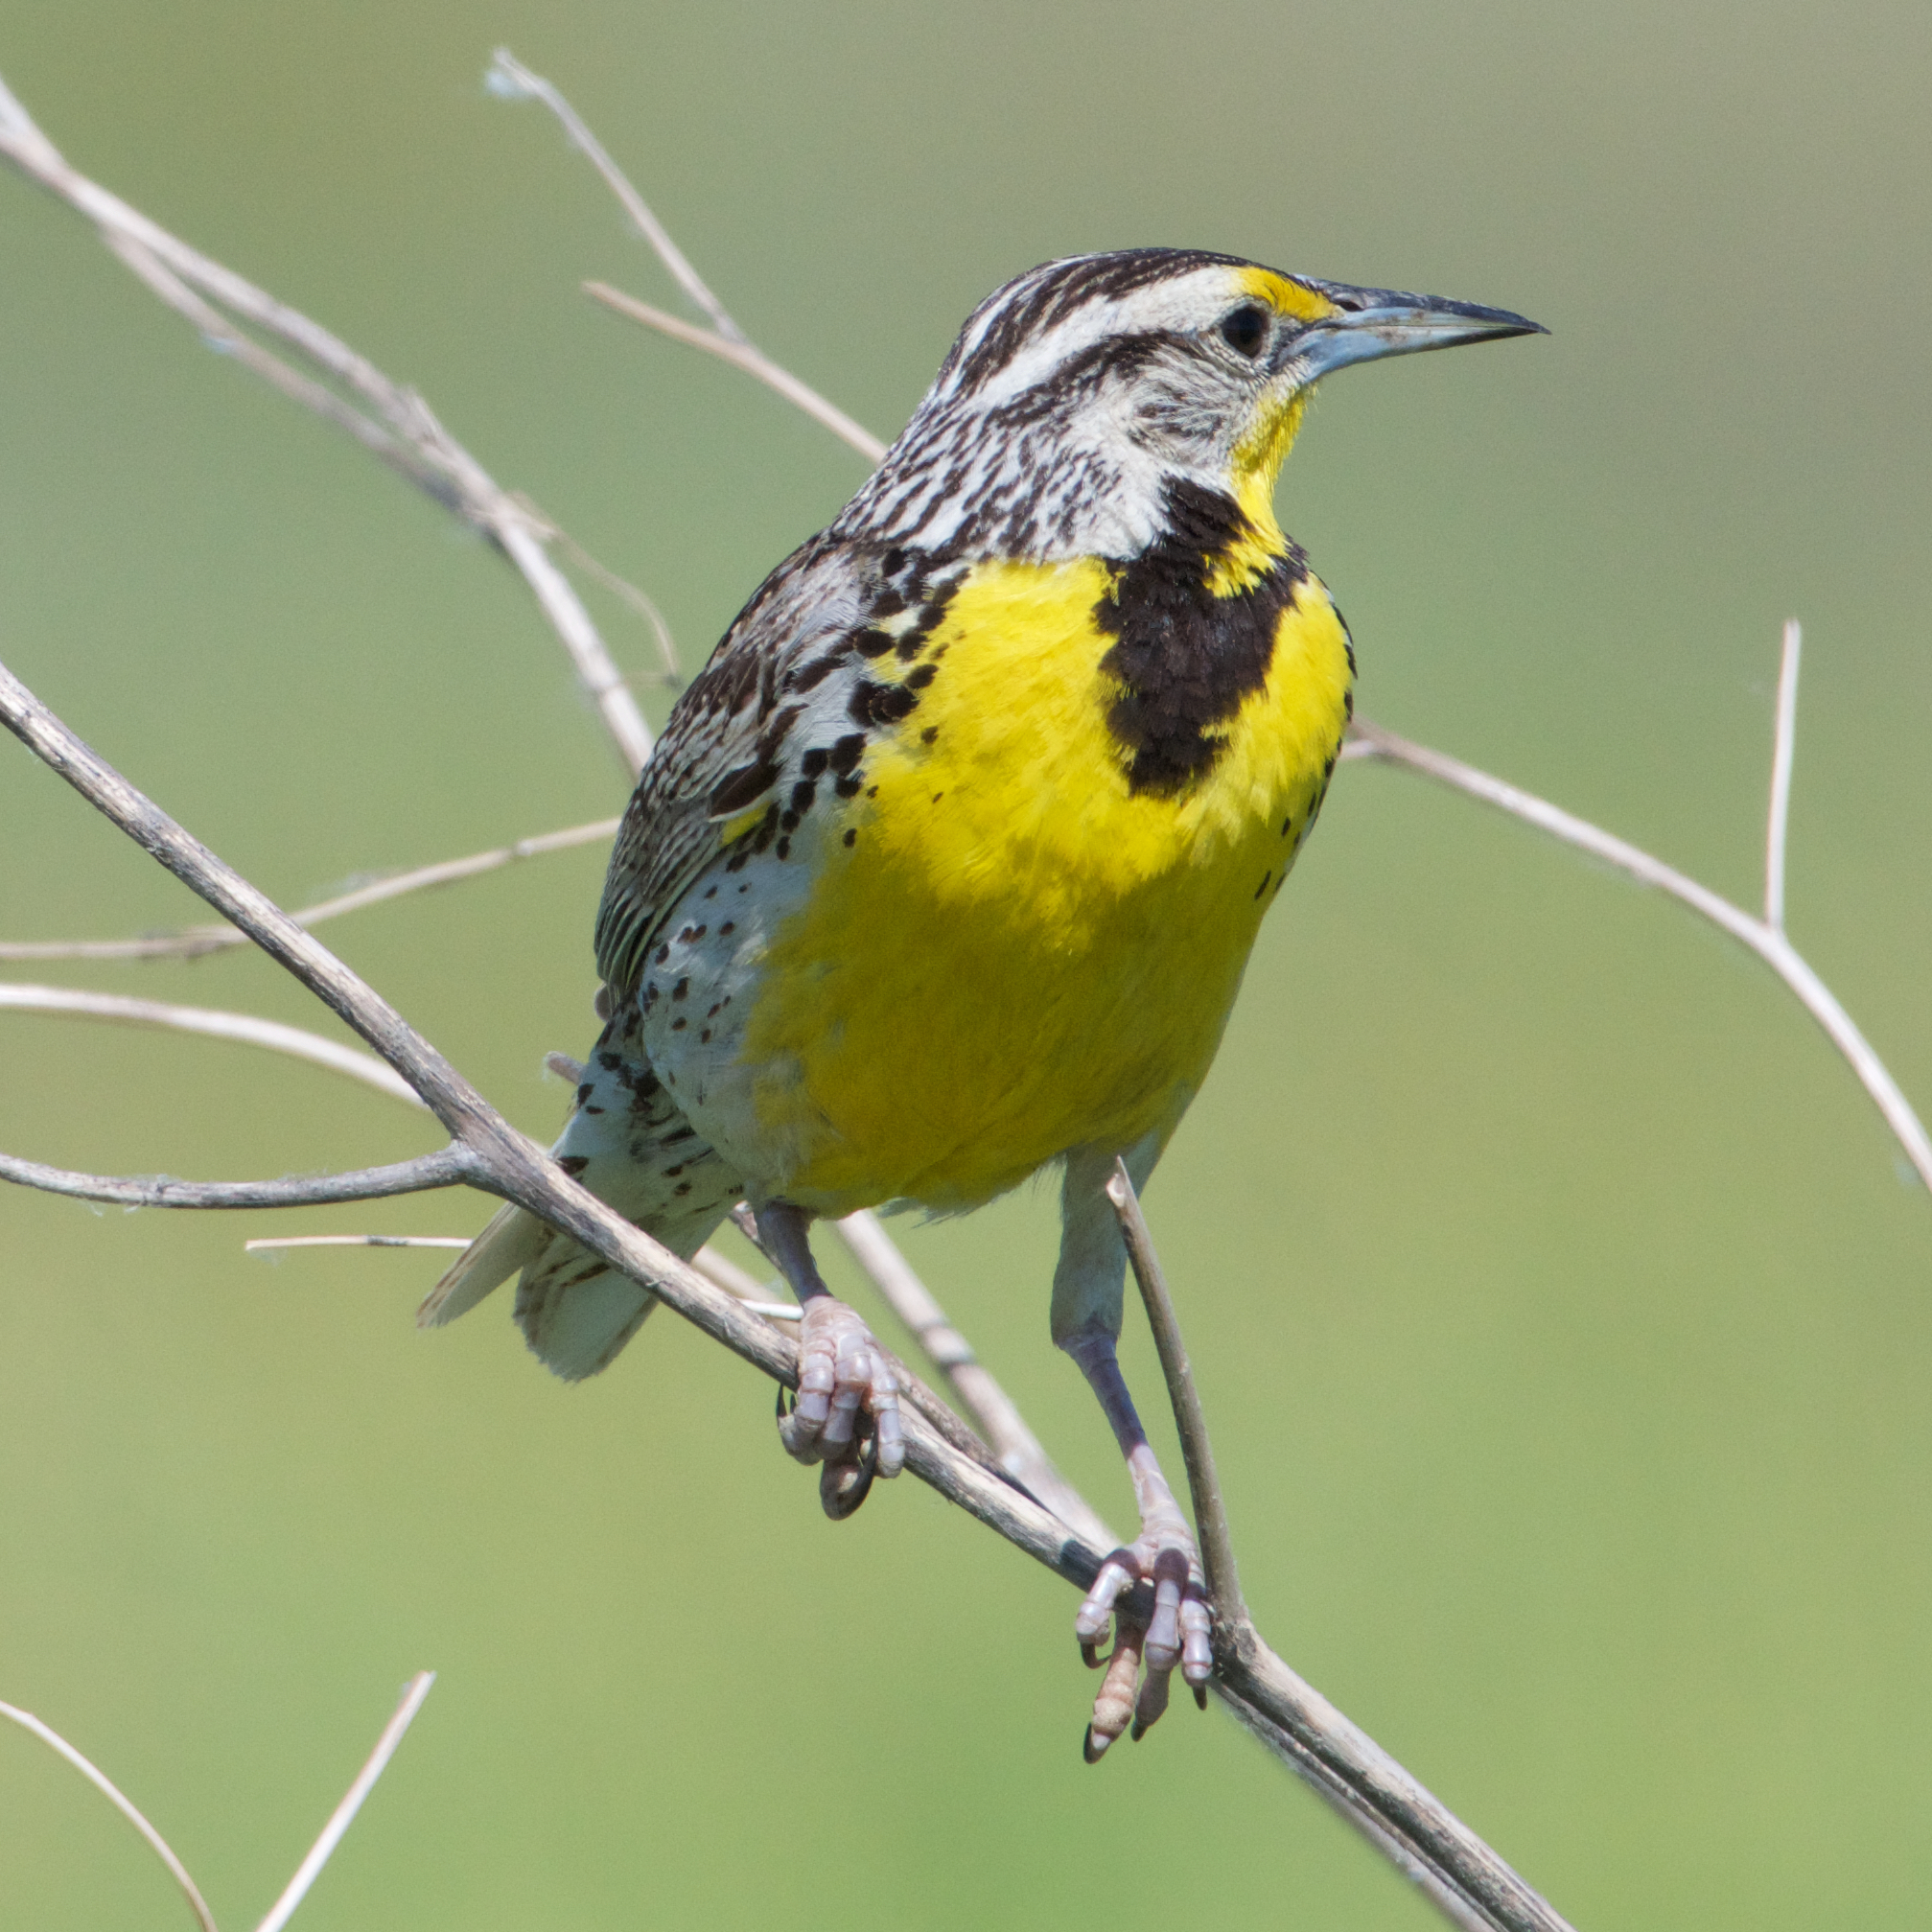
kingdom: Animalia
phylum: Chordata
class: Aves
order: Passeriformes
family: Icteridae
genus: Sturnella
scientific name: Sturnella neglecta
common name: Western meadowlark
